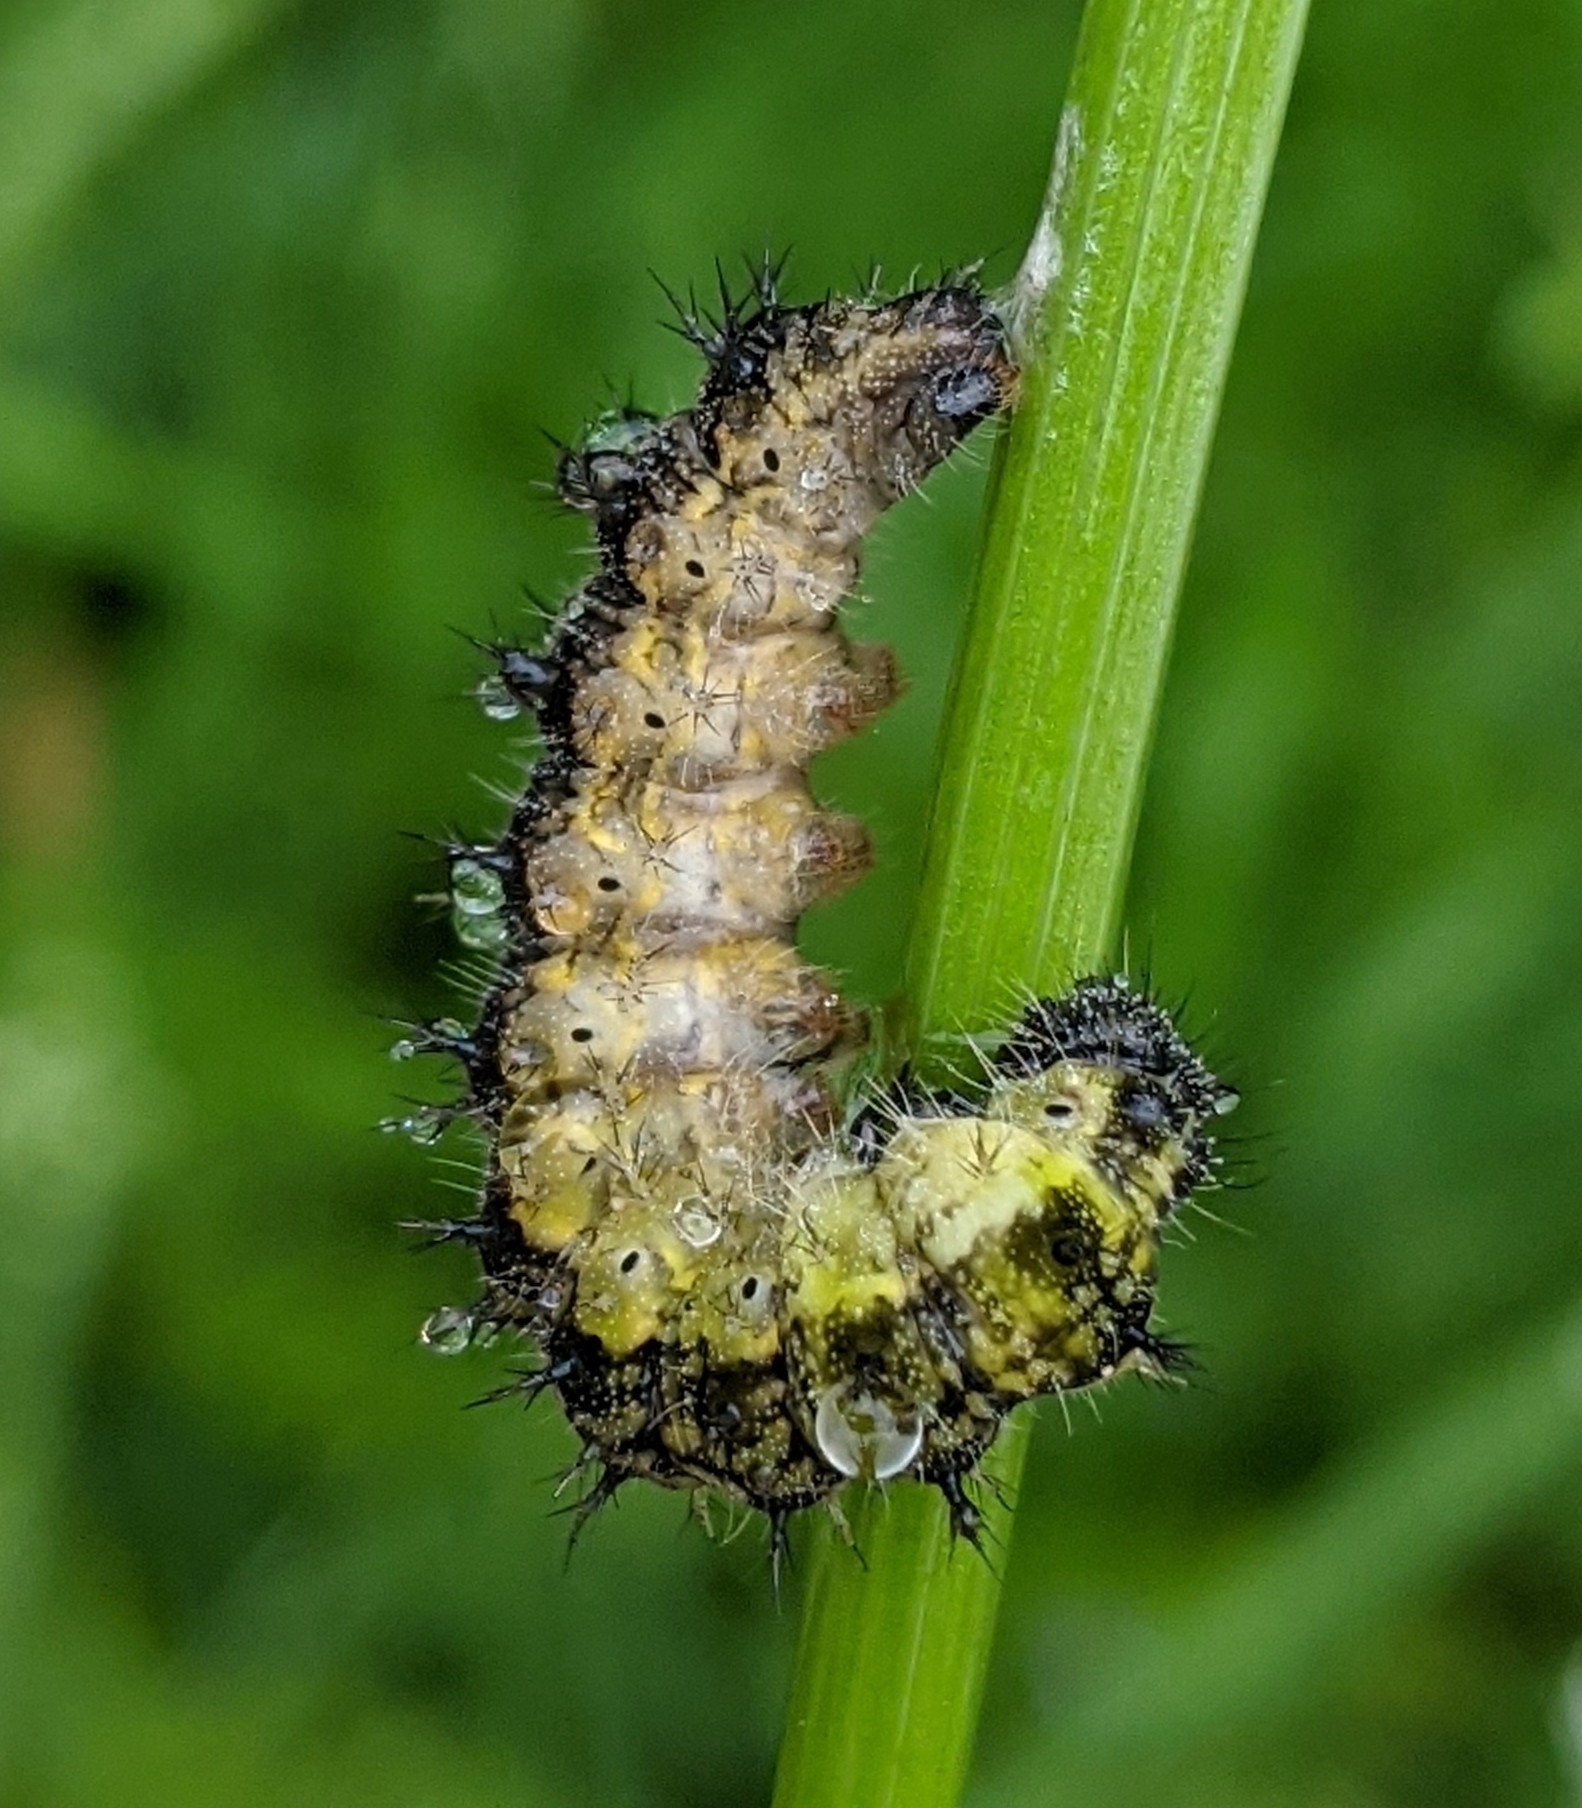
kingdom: Animalia
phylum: Arthropoda
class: Insecta
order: Lepidoptera
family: Nymphalidae
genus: Aglais
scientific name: Aglais urticae
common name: Small tortoiseshell
